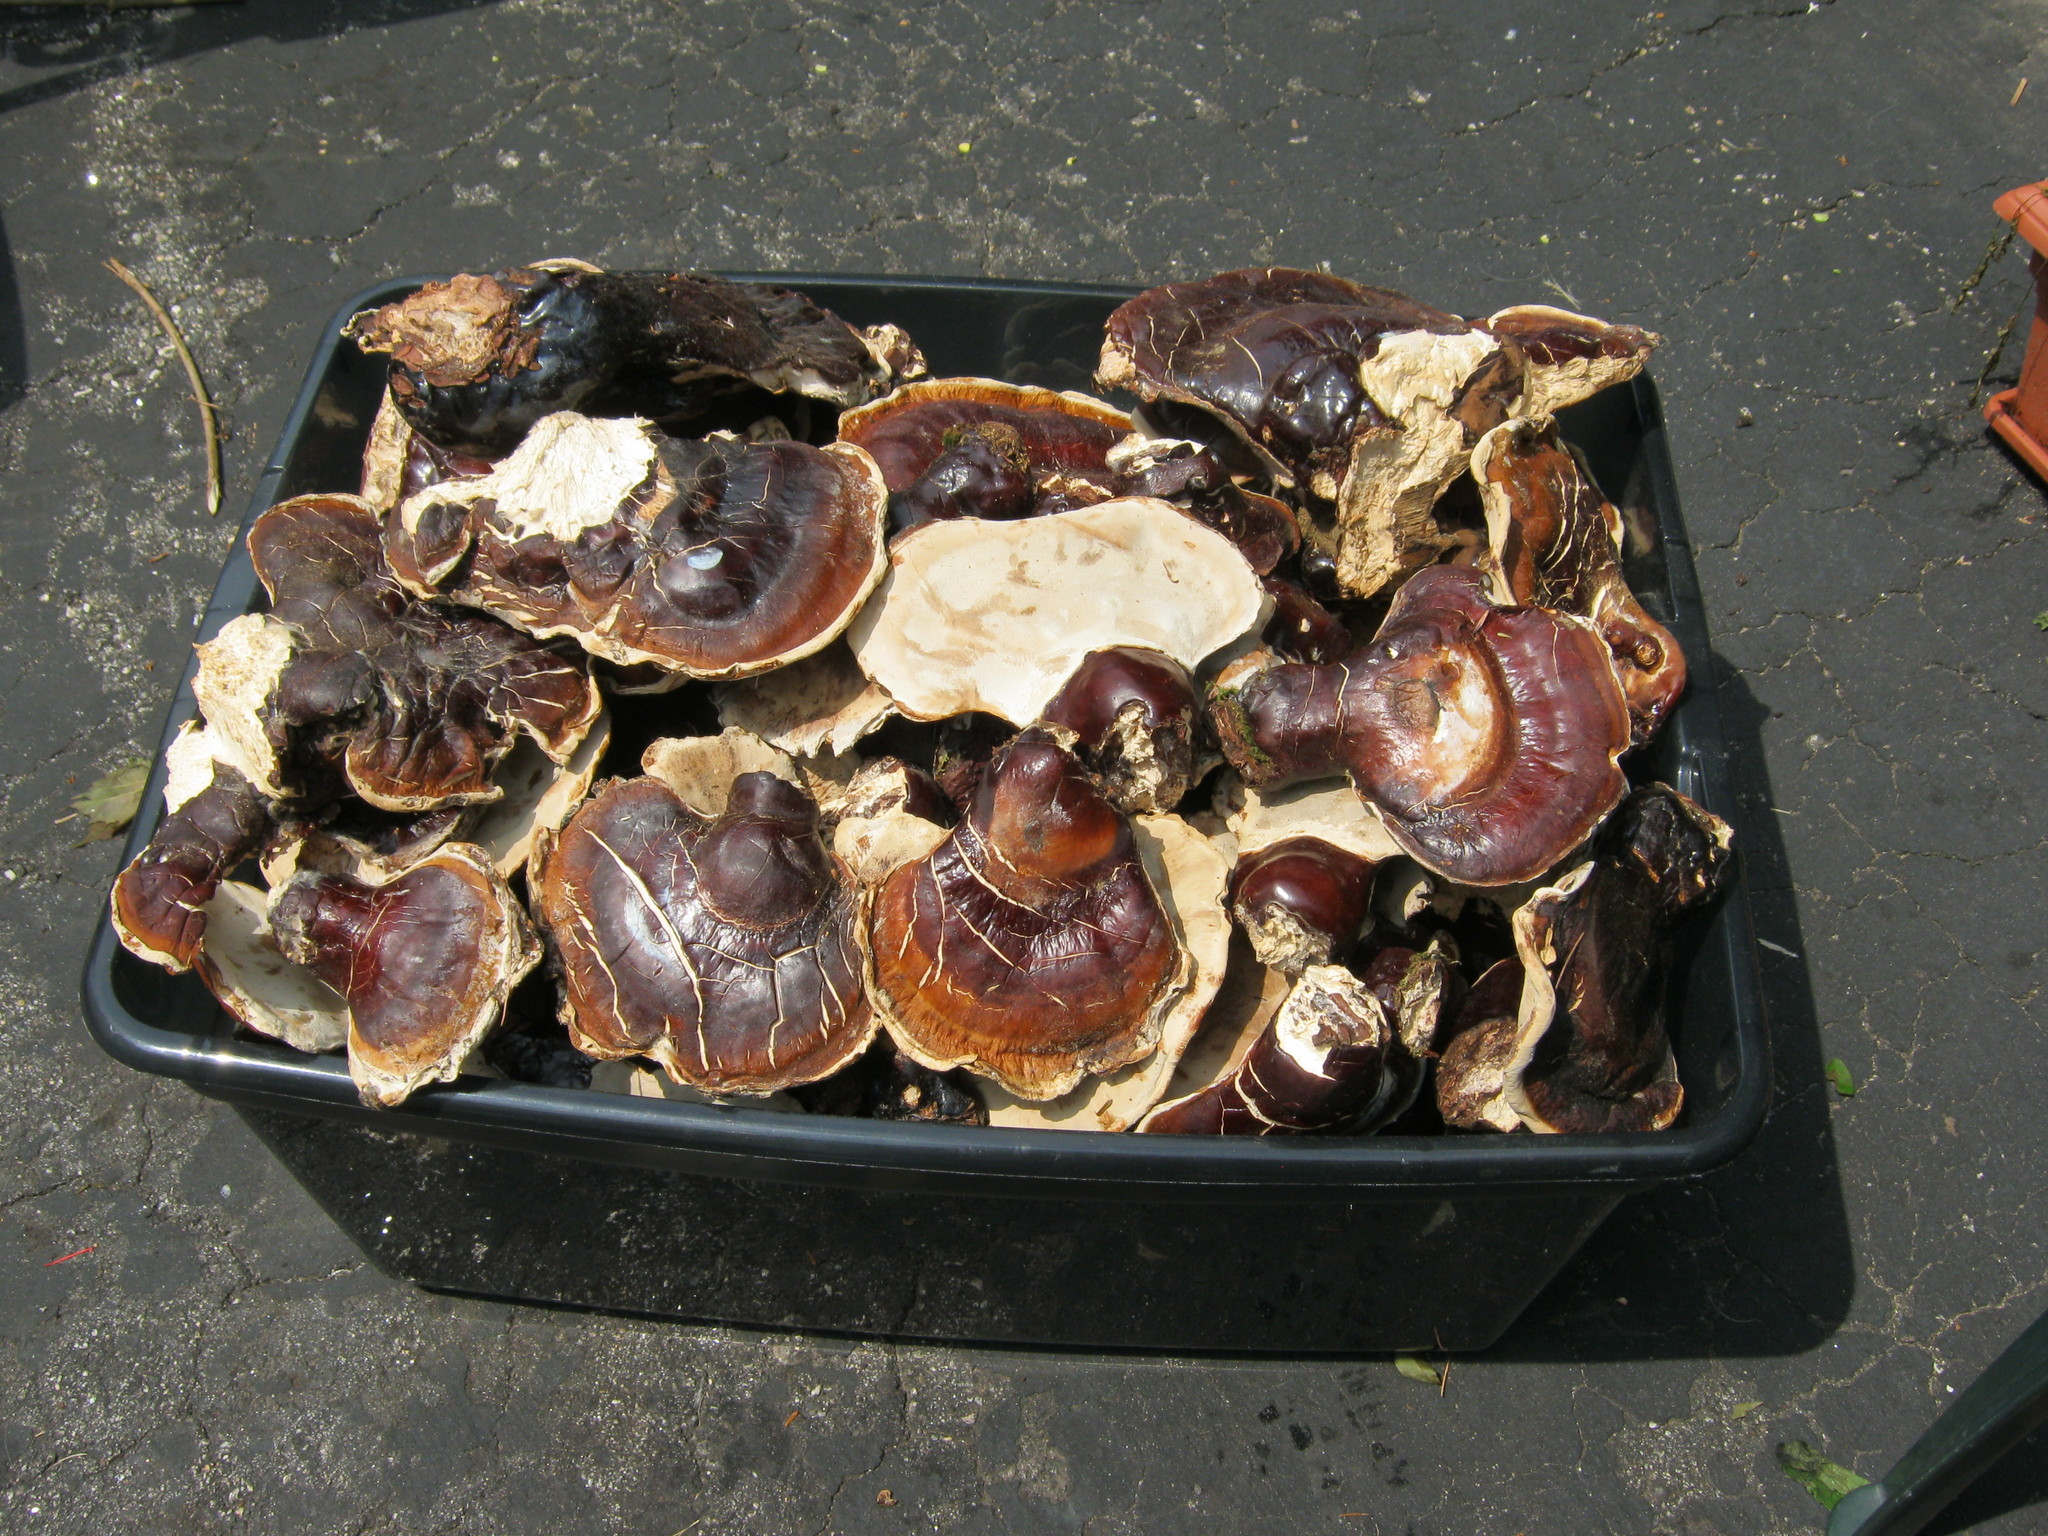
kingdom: Fungi
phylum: Basidiomycota
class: Agaricomycetes
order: Polyporales
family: Polyporaceae
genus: Ganoderma
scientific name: Ganoderma tsugae
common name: Hemlock varnish shelf
